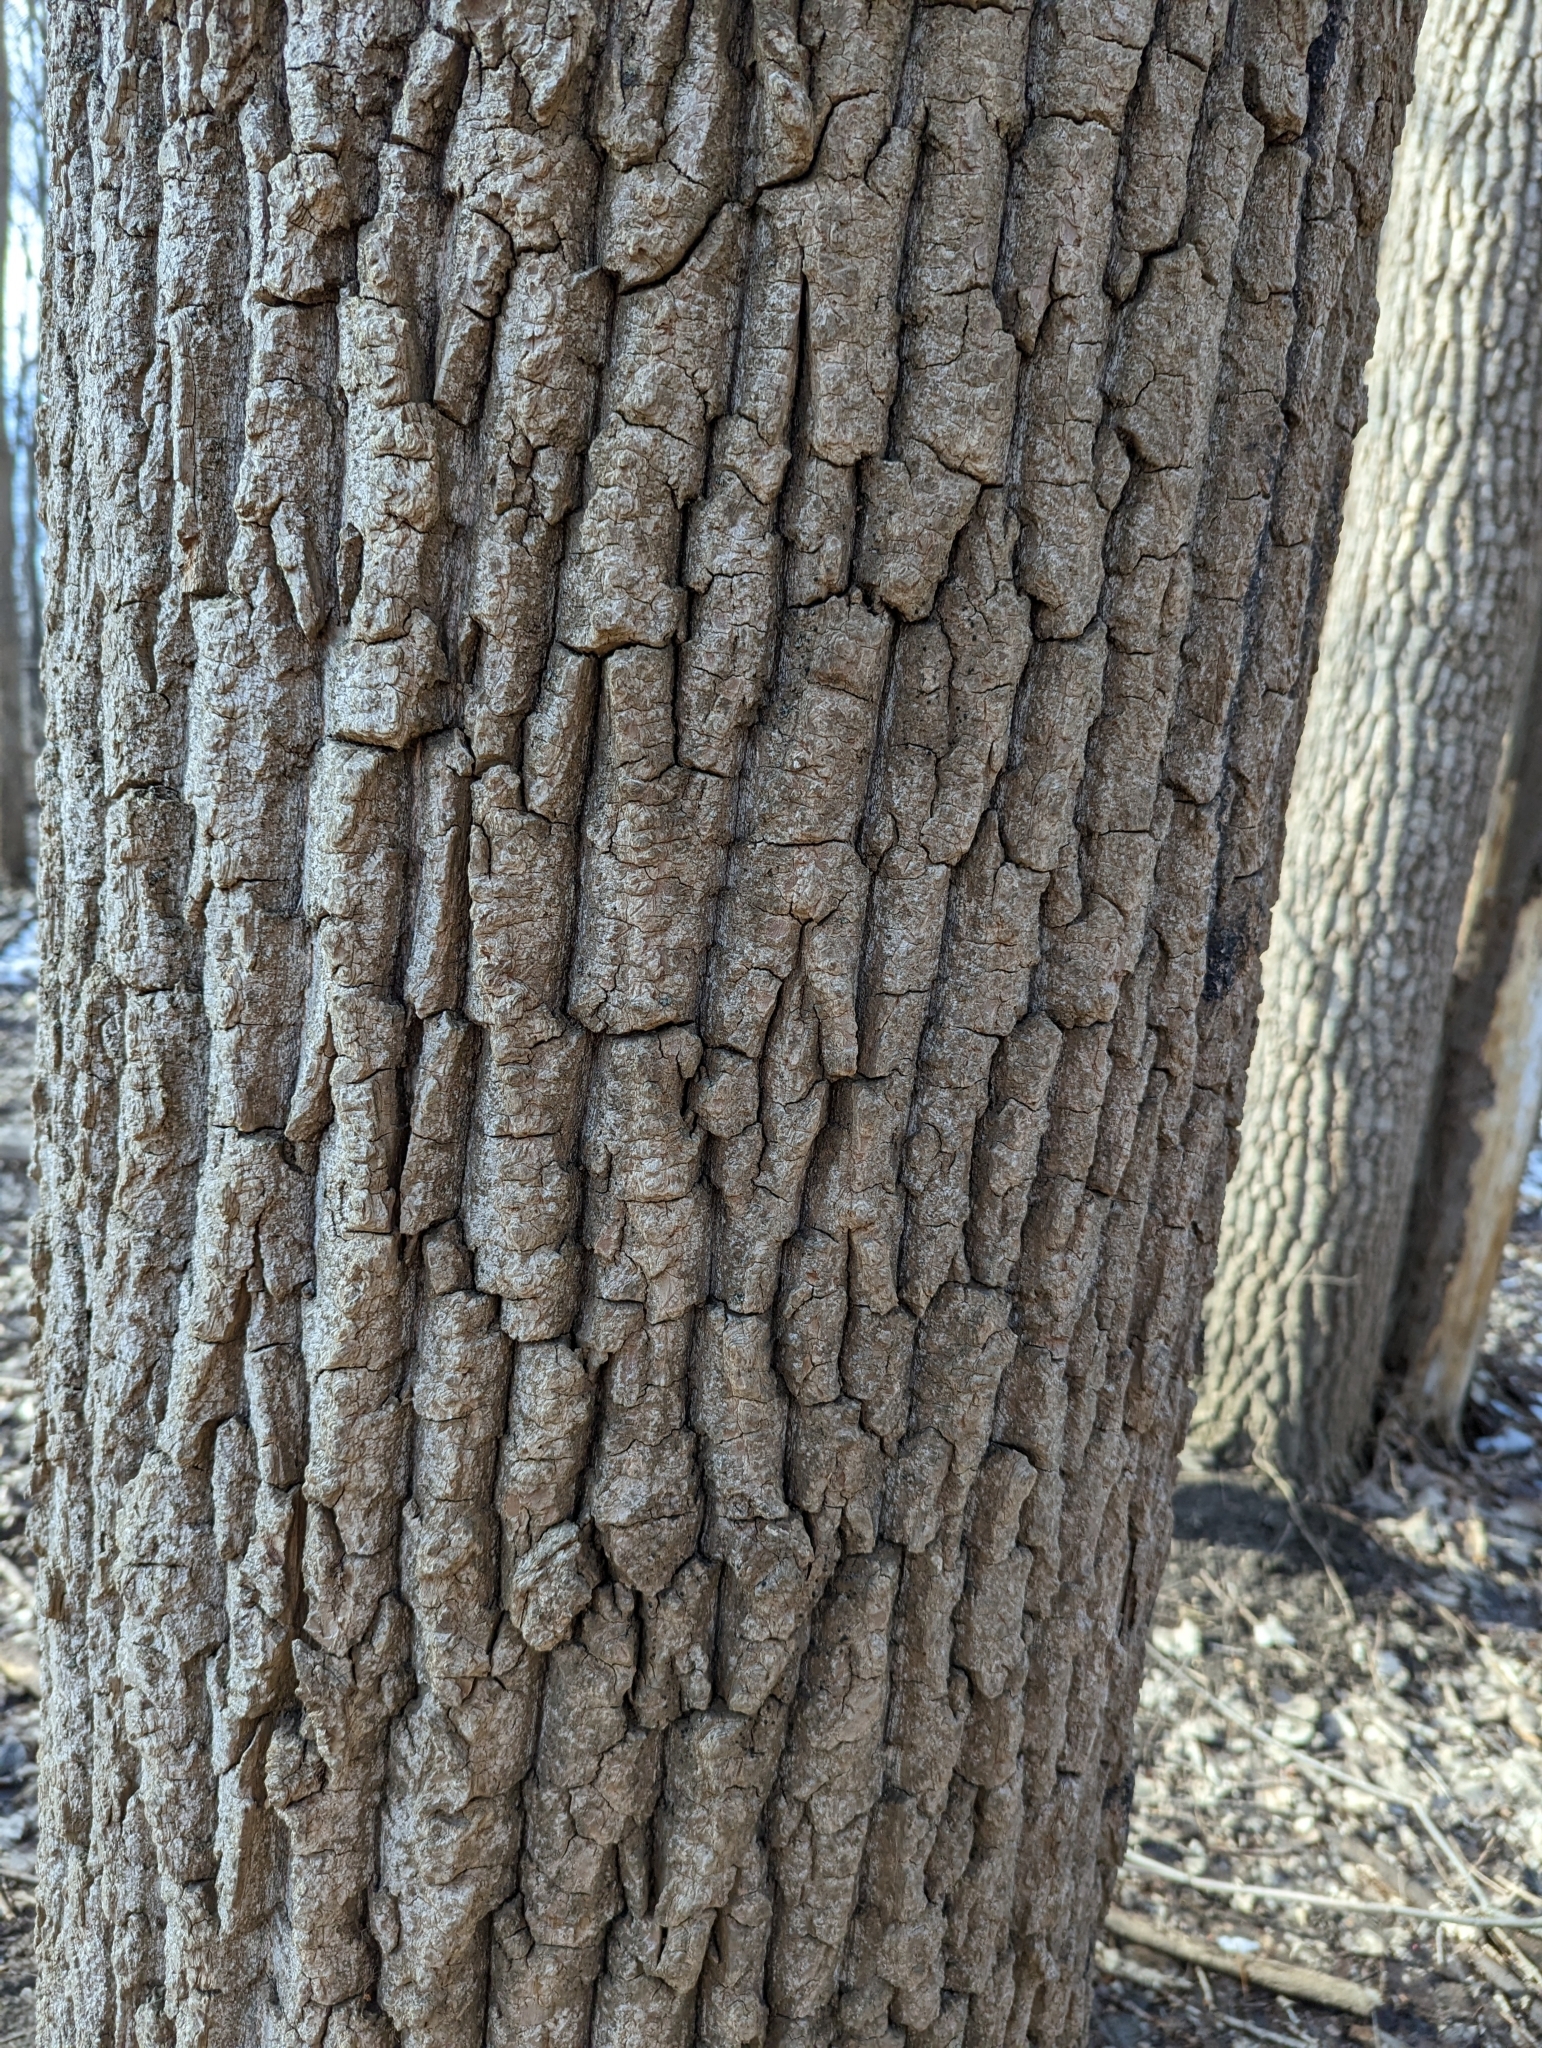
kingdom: Plantae
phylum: Tracheophyta
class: Magnoliopsida
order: Malpighiales
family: Salicaceae
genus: Populus
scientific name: Populus deltoides
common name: Eastern cottonwood
